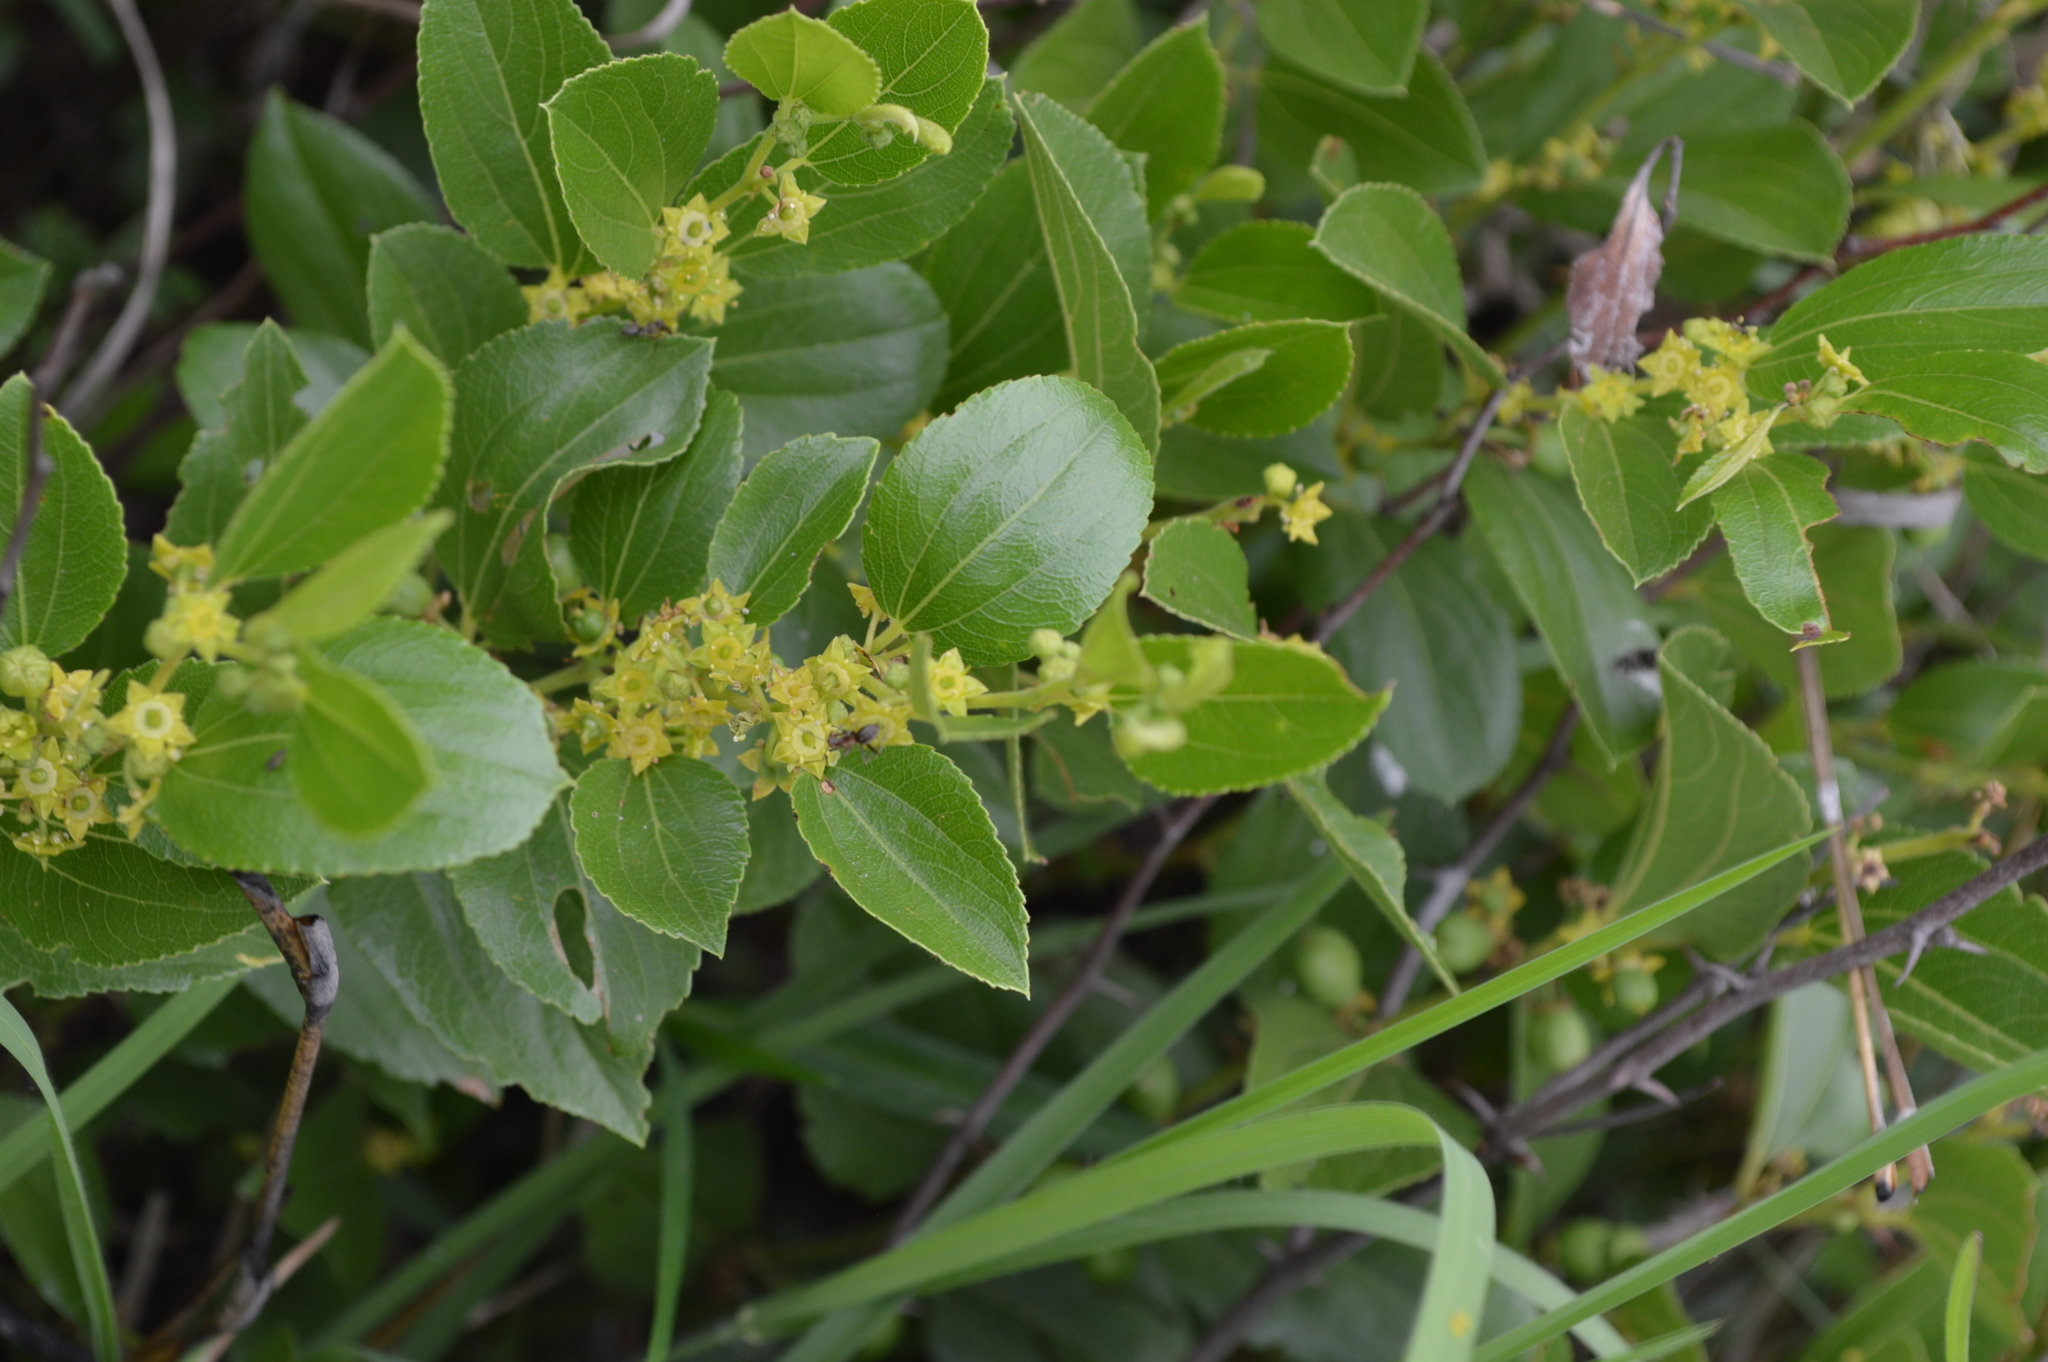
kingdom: Plantae
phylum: Tracheophyta
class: Magnoliopsida
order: Rosales
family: Rhamnaceae
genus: Ziziphus
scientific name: Ziziphus zeyheriana
